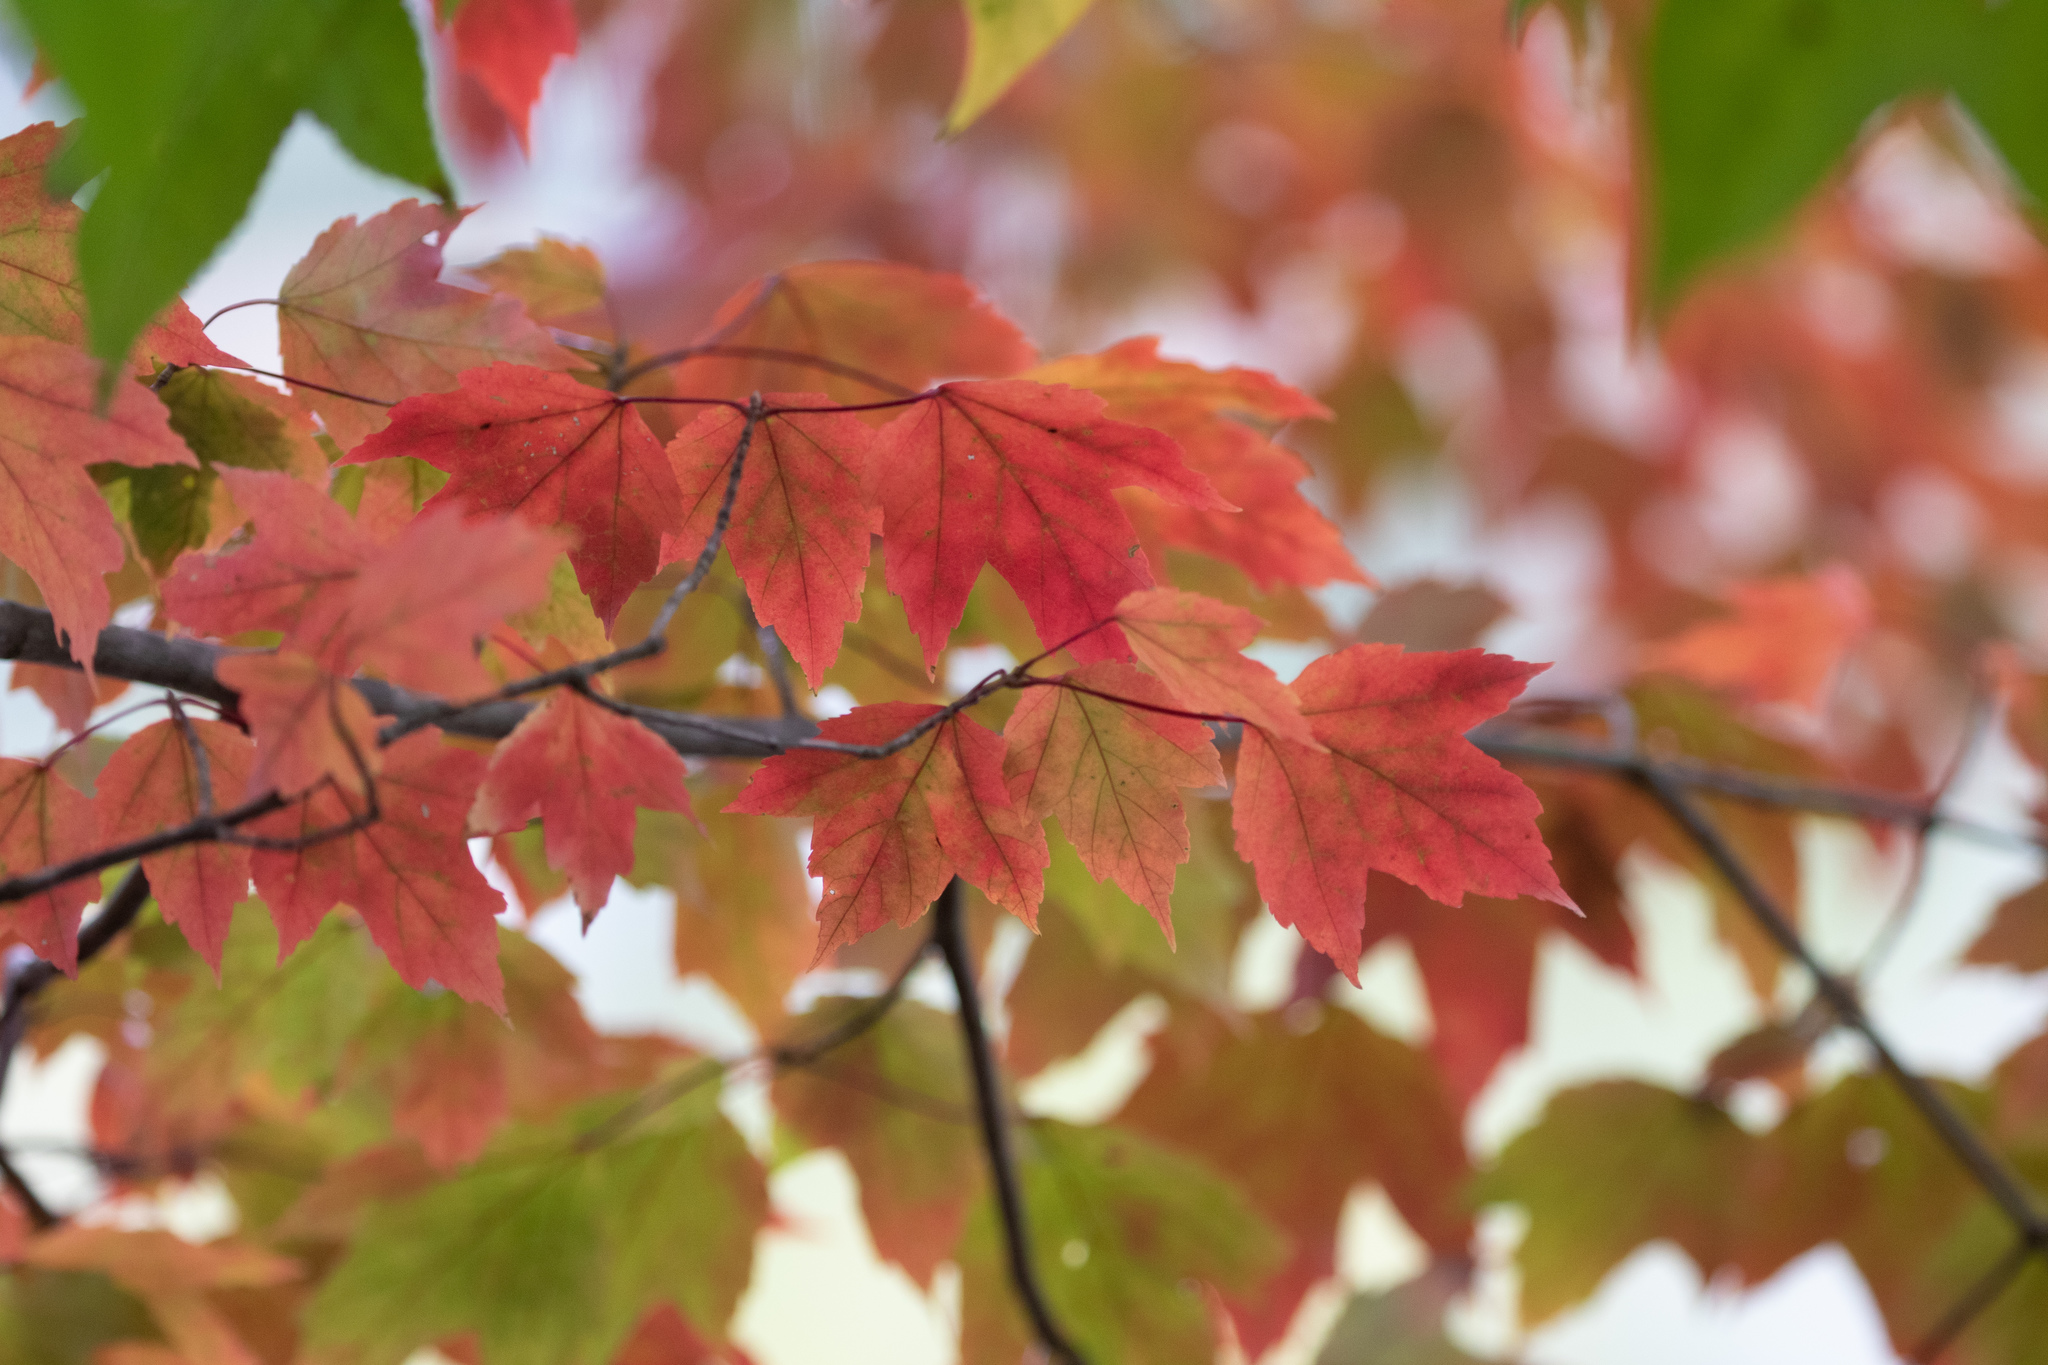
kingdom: Plantae
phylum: Tracheophyta
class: Magnoliopsida
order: Sapindales
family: Sapindaceae
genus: Acer
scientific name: Acer rubrum
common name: Red maple
